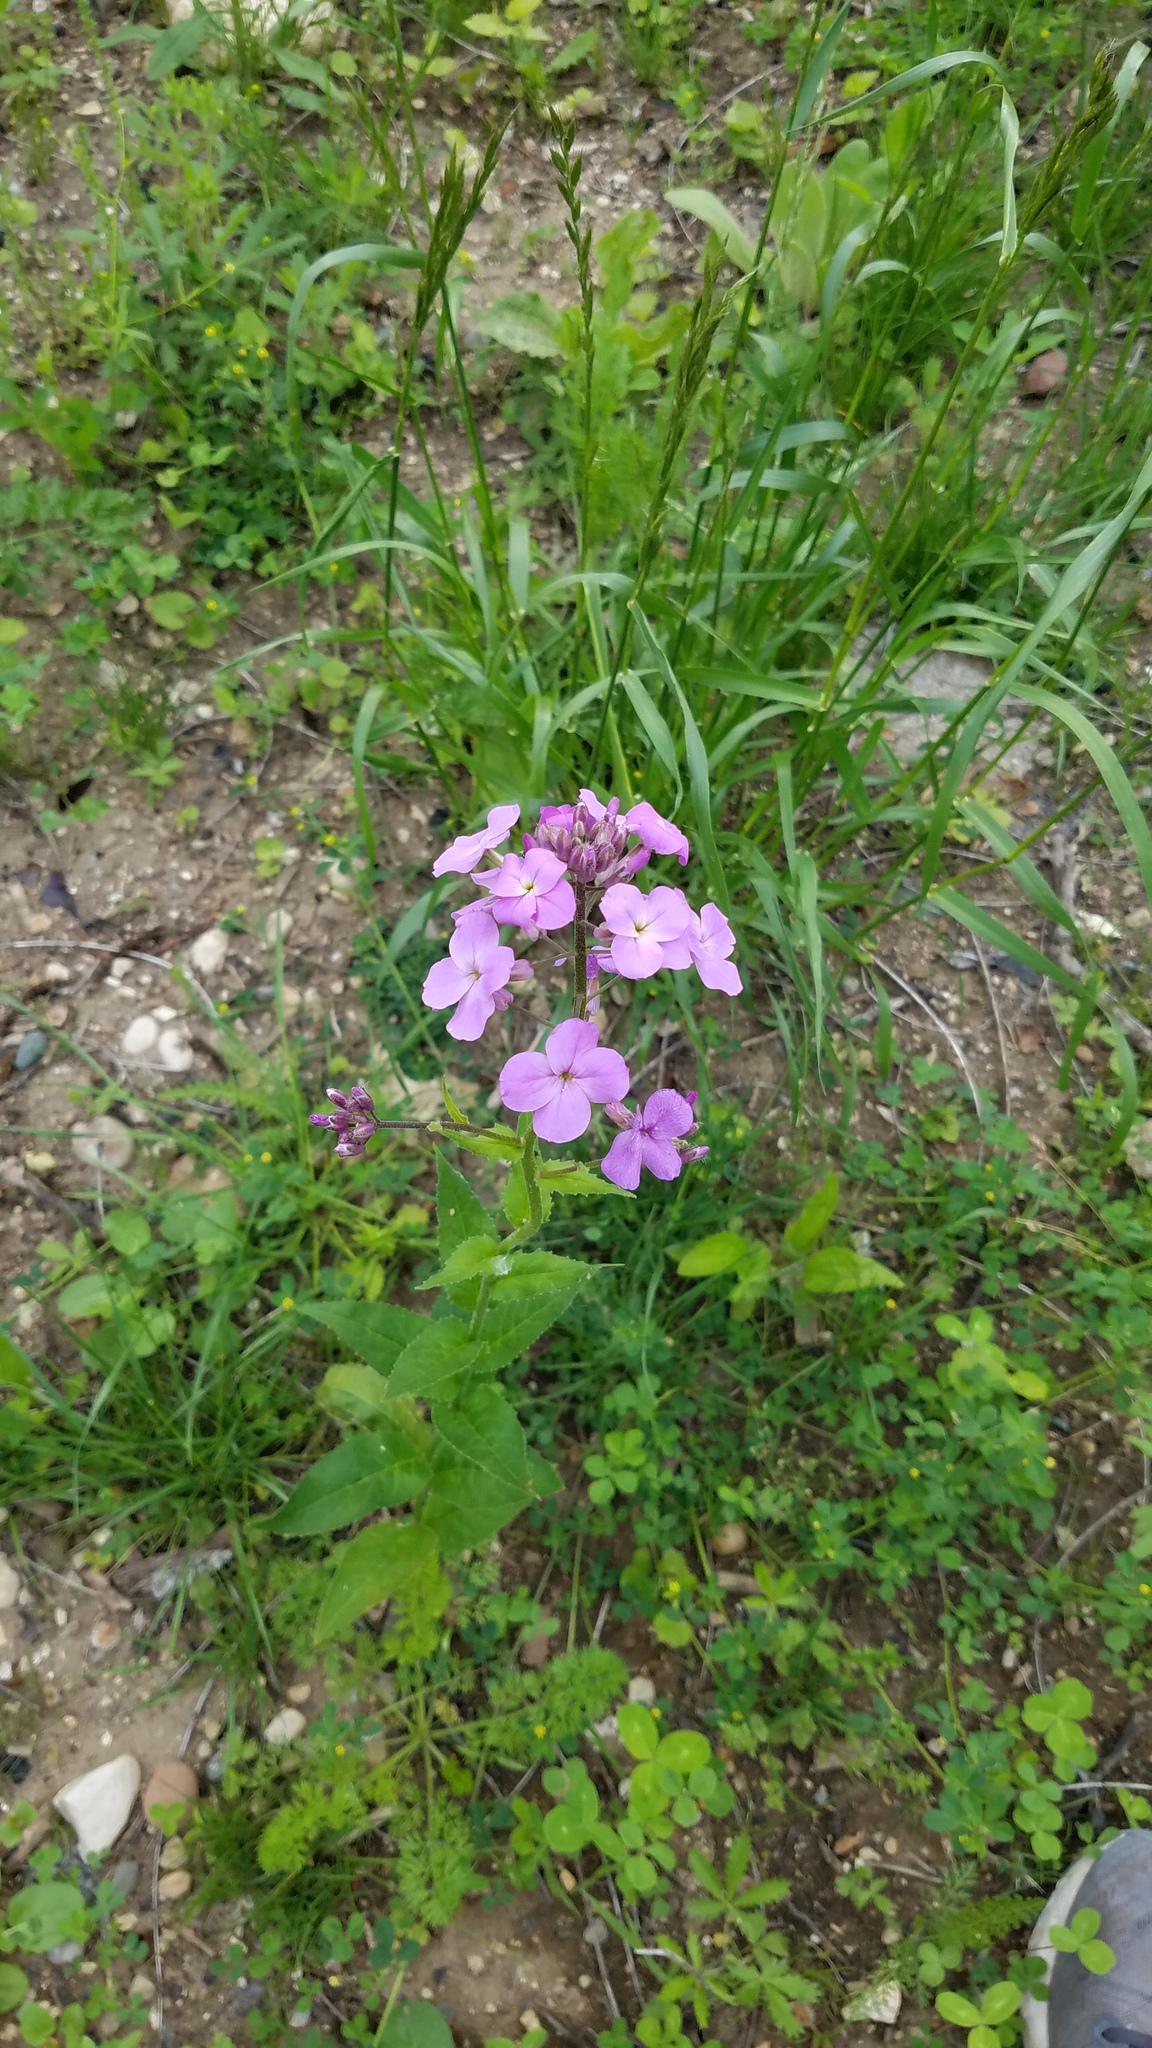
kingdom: Plantae
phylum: Tracheophyta
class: Magnoliopsida
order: Brassicales
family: Brassicaceae
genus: Hesperis
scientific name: Hesperis matronalis
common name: Dame's-violet
